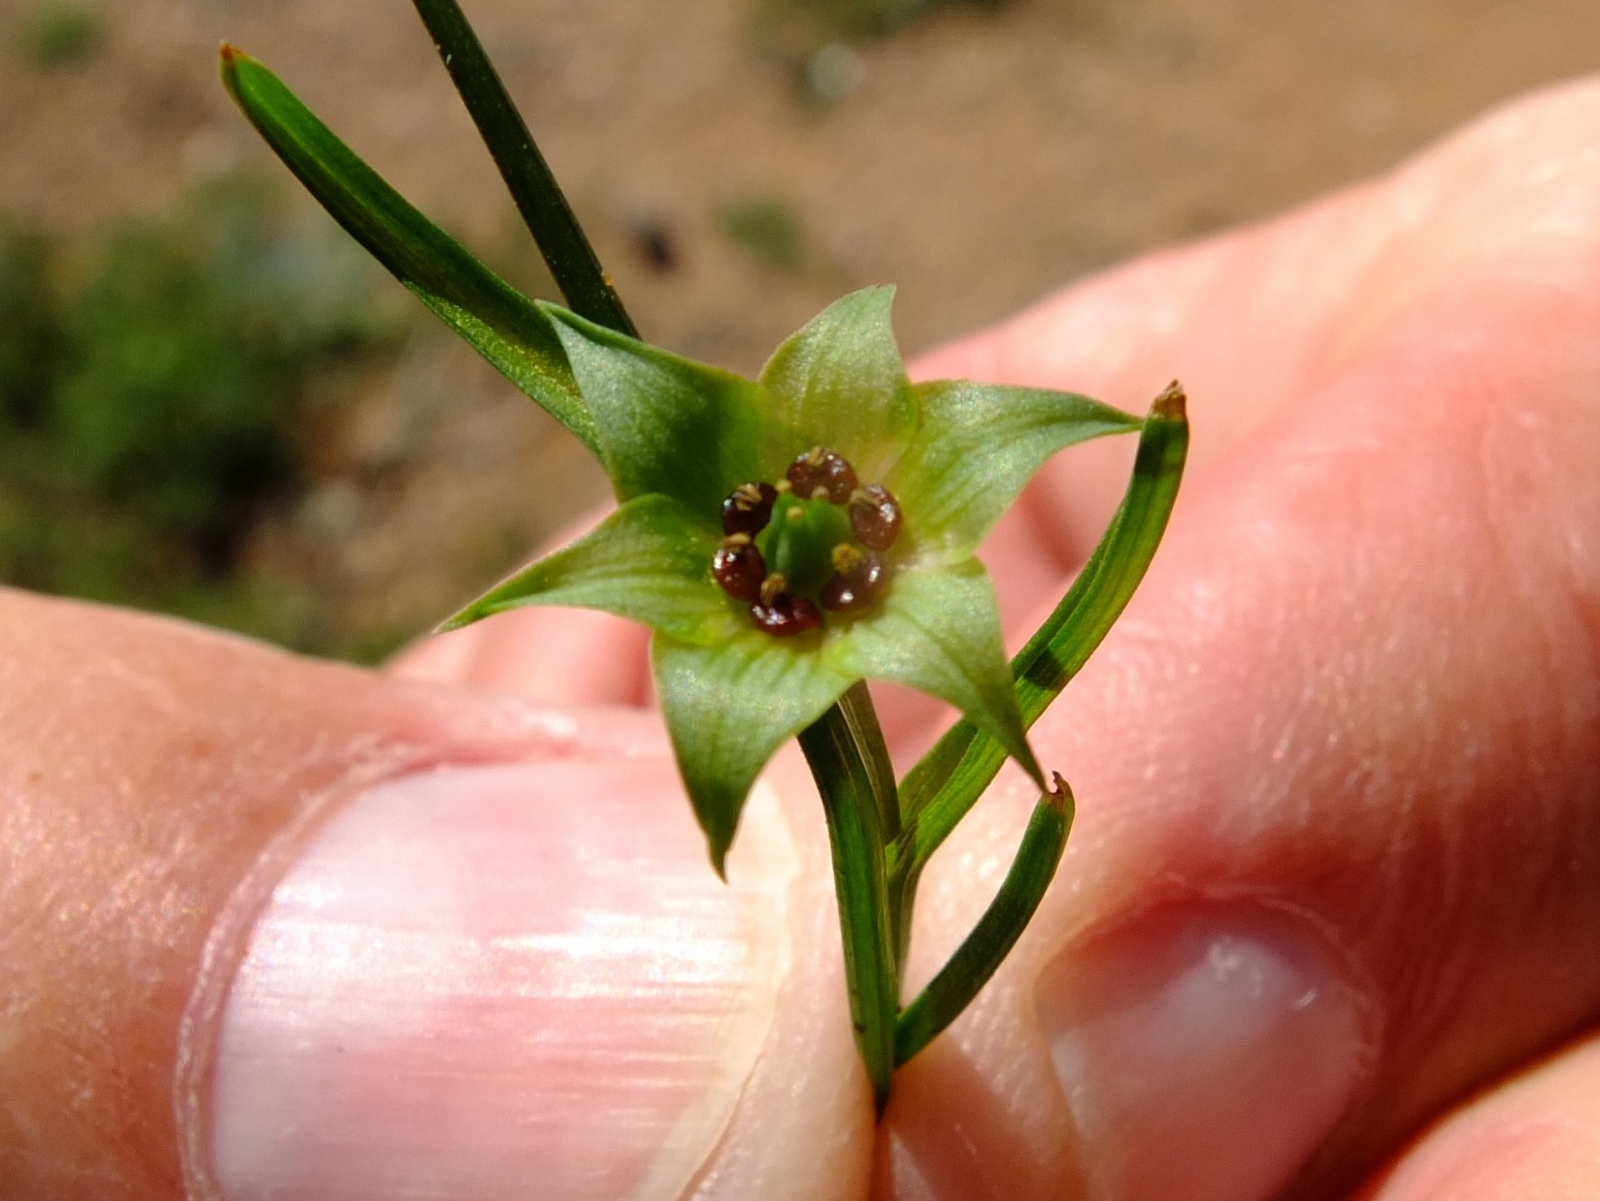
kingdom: Plantae
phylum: Tracheophyta
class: Liliopsida
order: Liliales
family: Colchicaceae
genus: Colchicum
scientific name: Colchicum dregei
